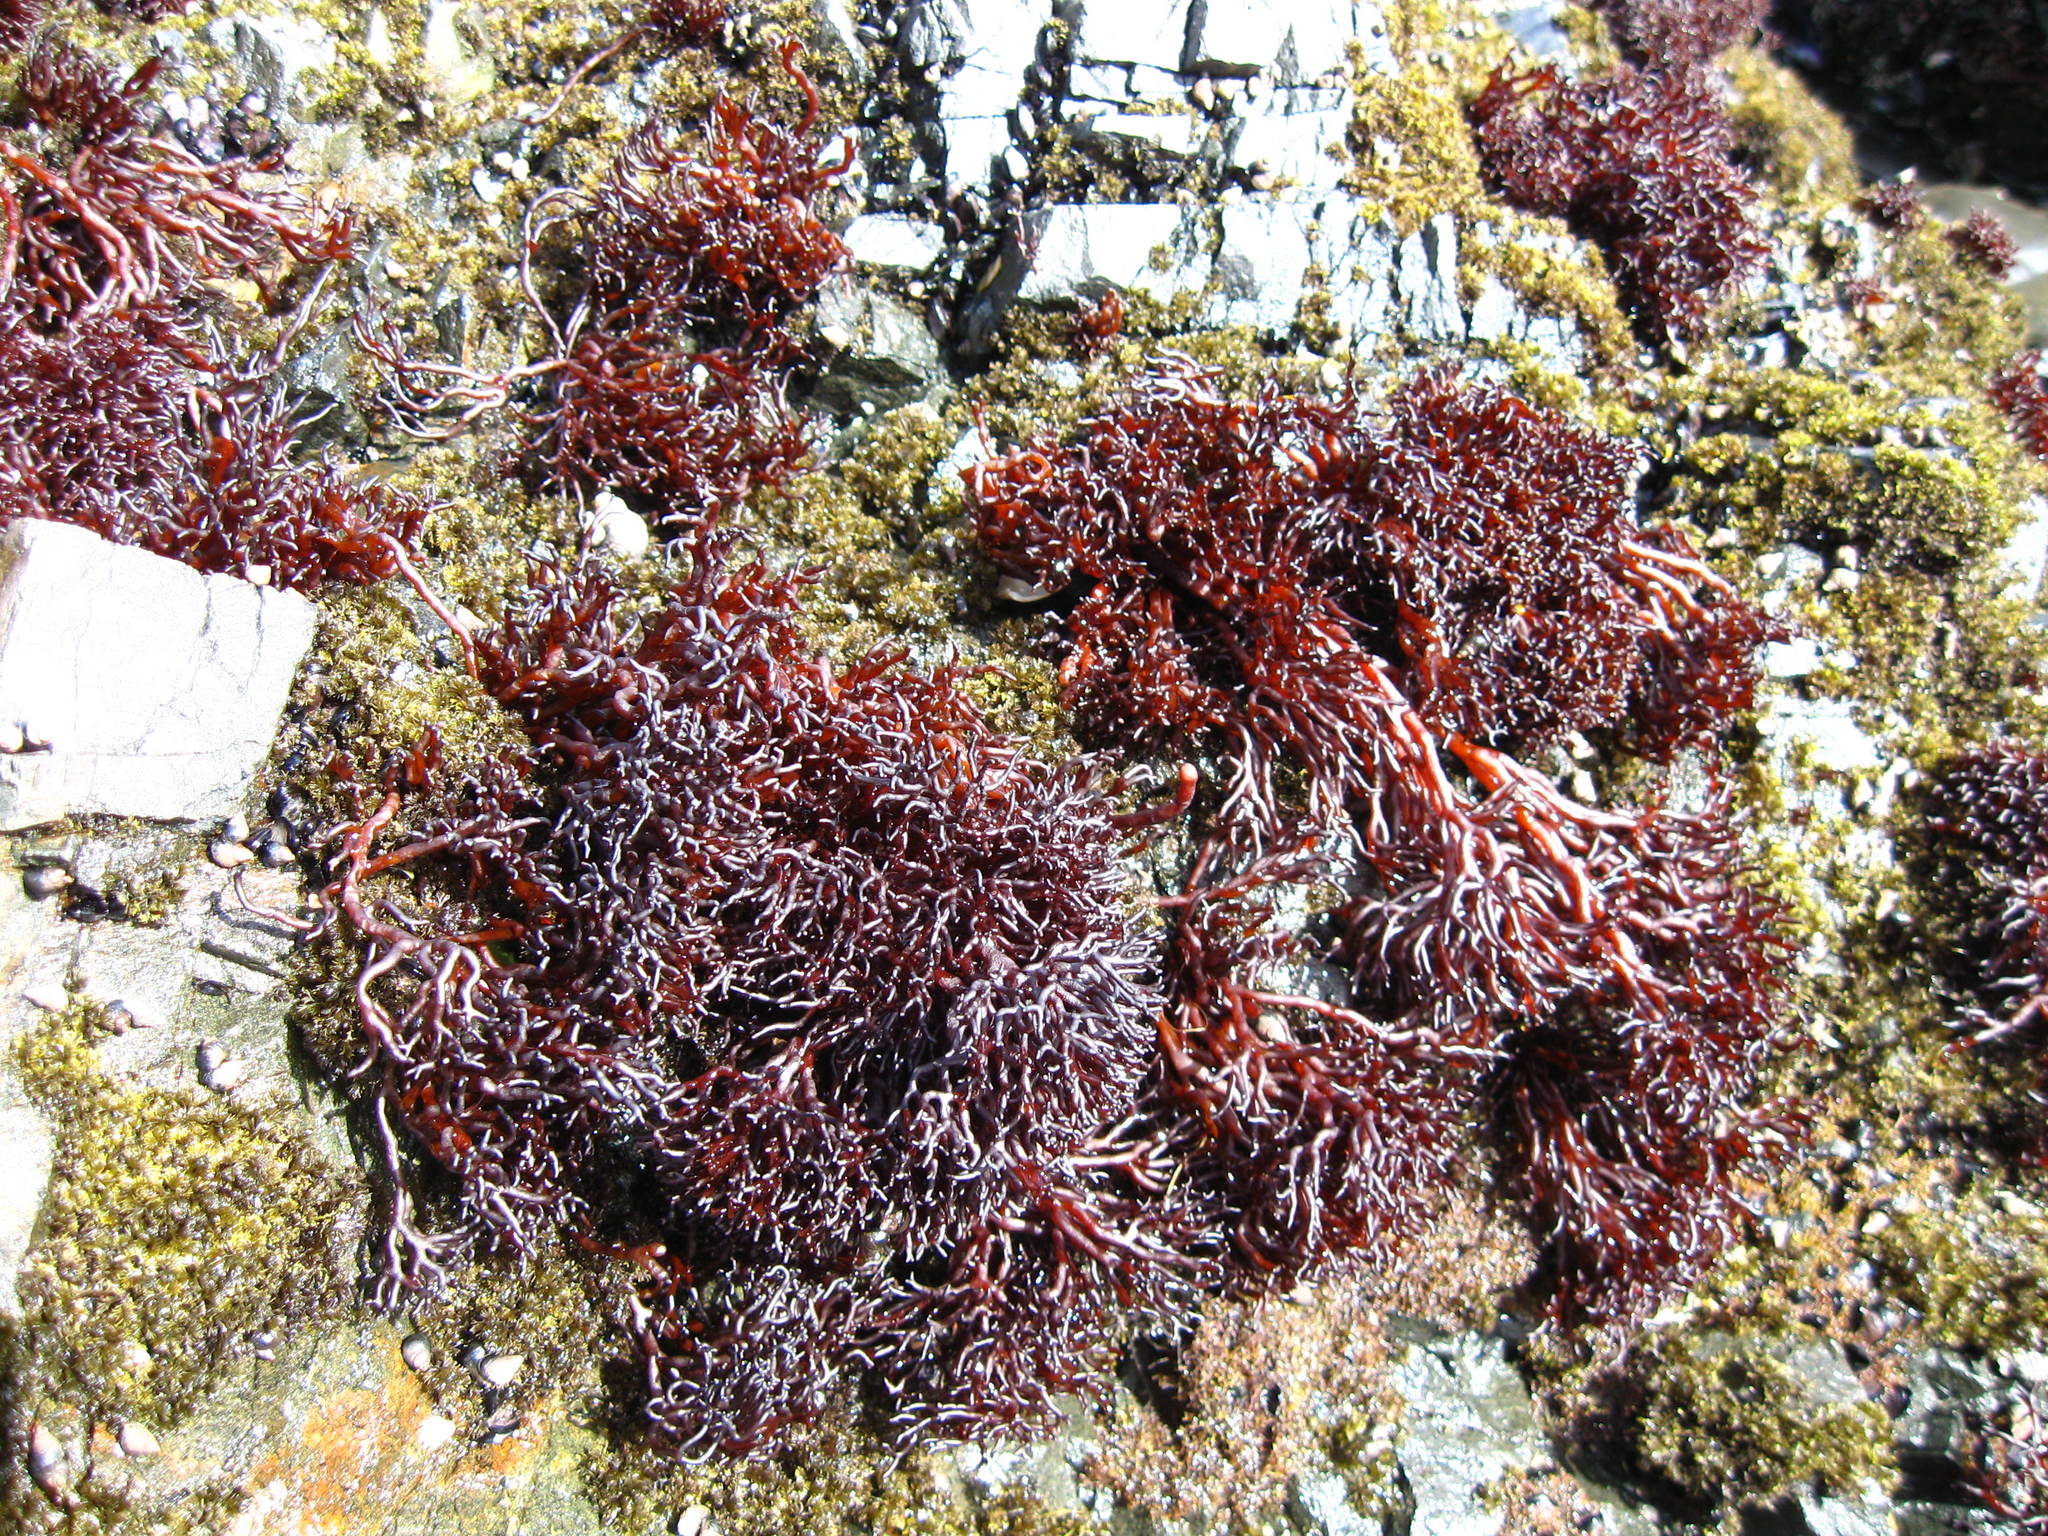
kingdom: Plantae
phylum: Rhodophyta
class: Florideophyceae
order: Hildenbrandiales
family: Hildenbrandiaceae
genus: Apophlaea
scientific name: Apophlaea lyallii
